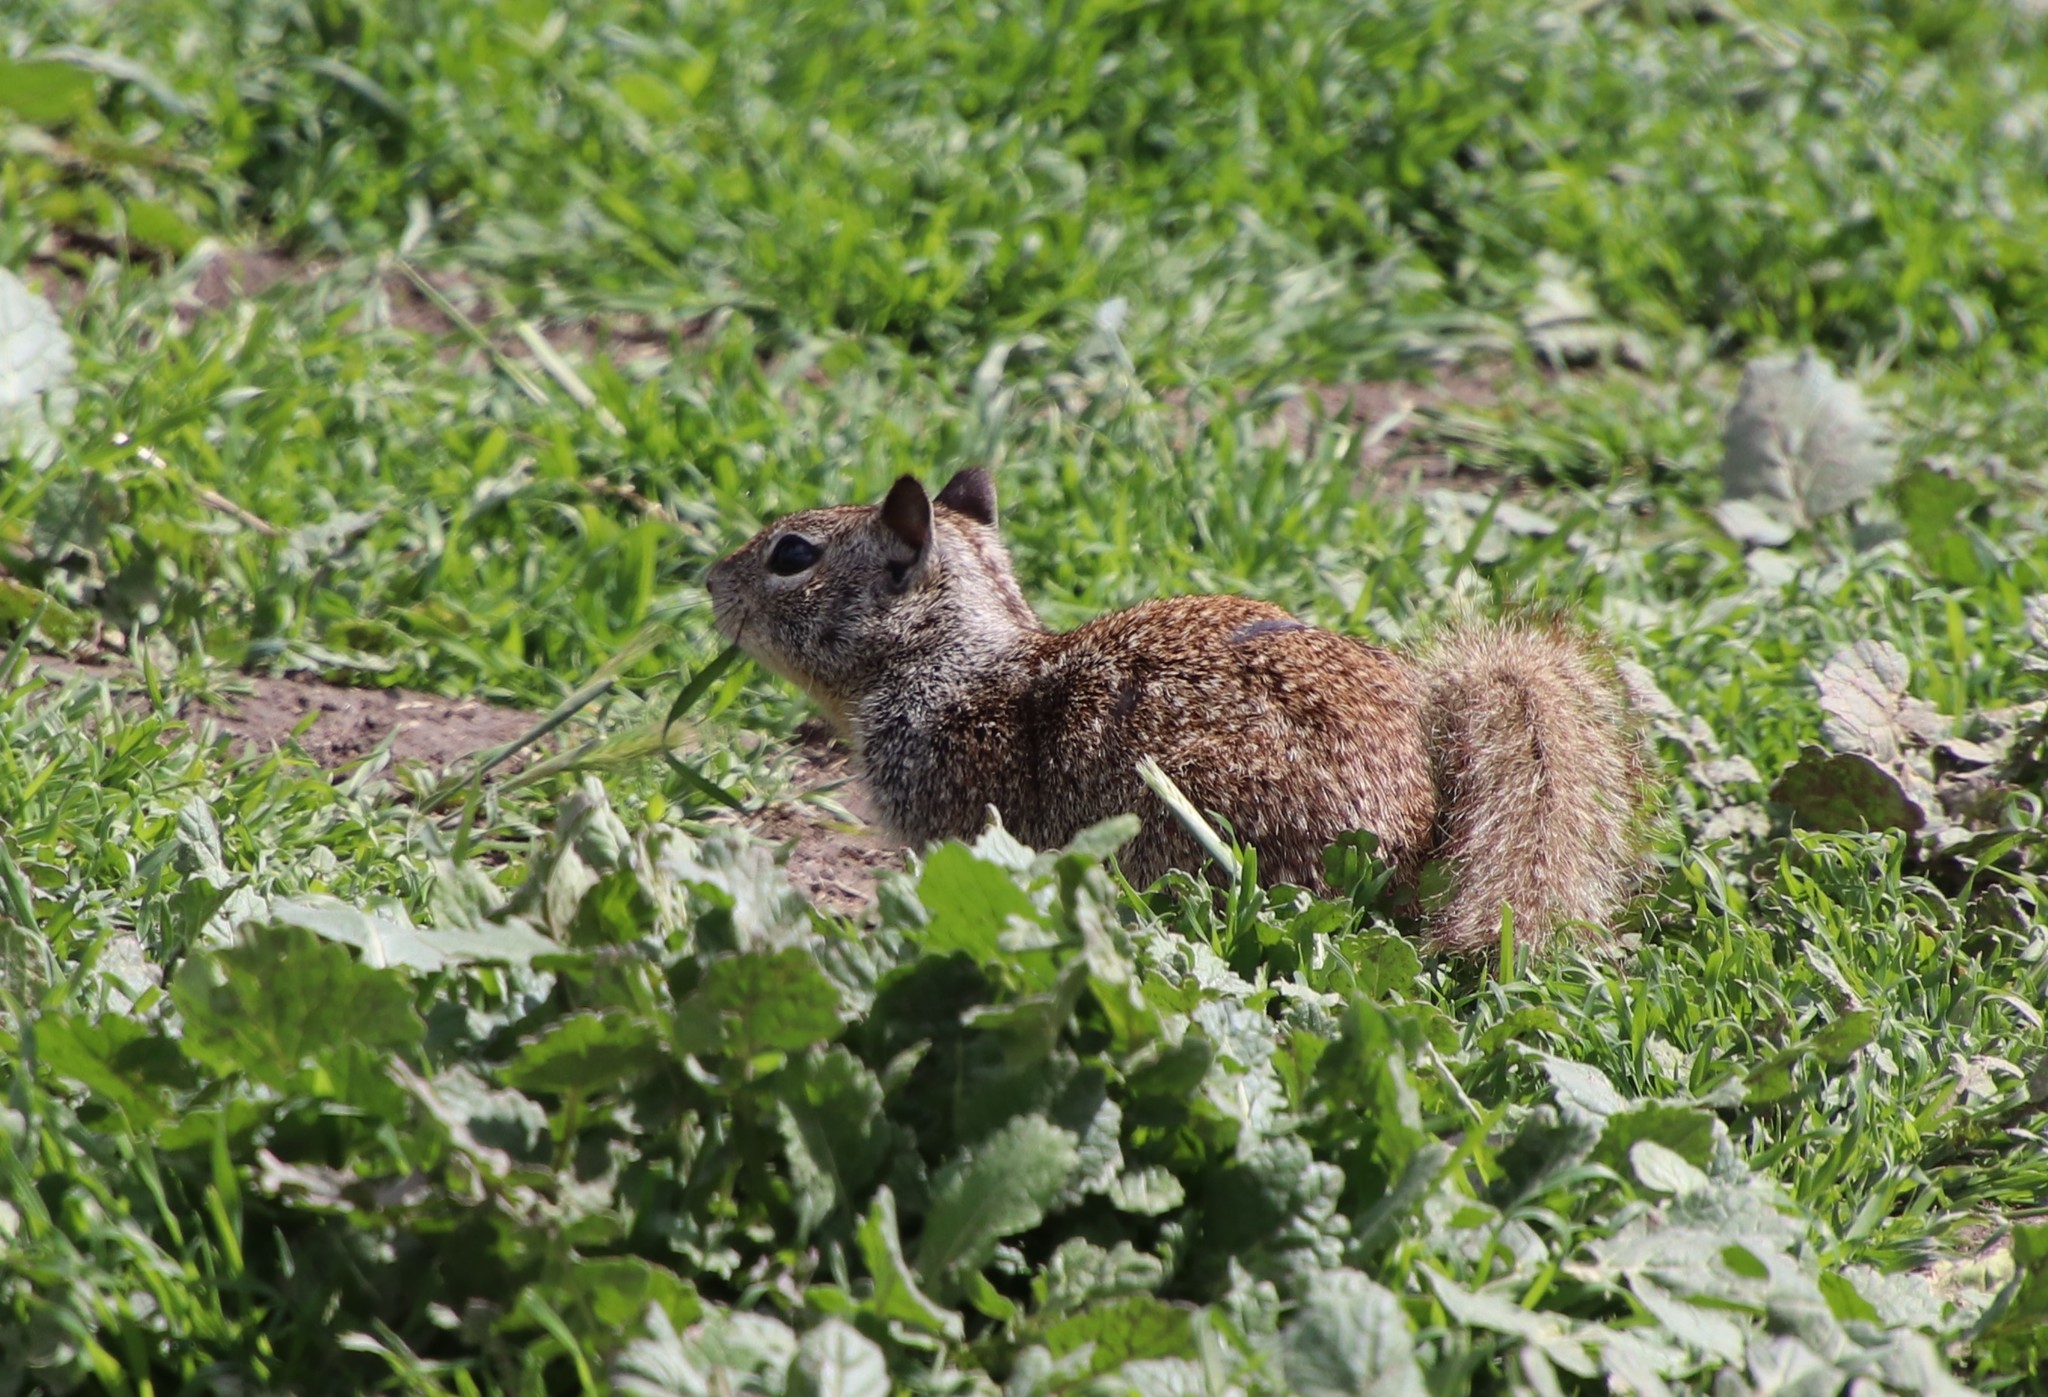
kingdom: Animalia
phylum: Chordata
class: Mammalia
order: Rodentia
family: Sciuridae
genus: Otospermophilus
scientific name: Otospermophilus beecheyi
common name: California ground squirrel
